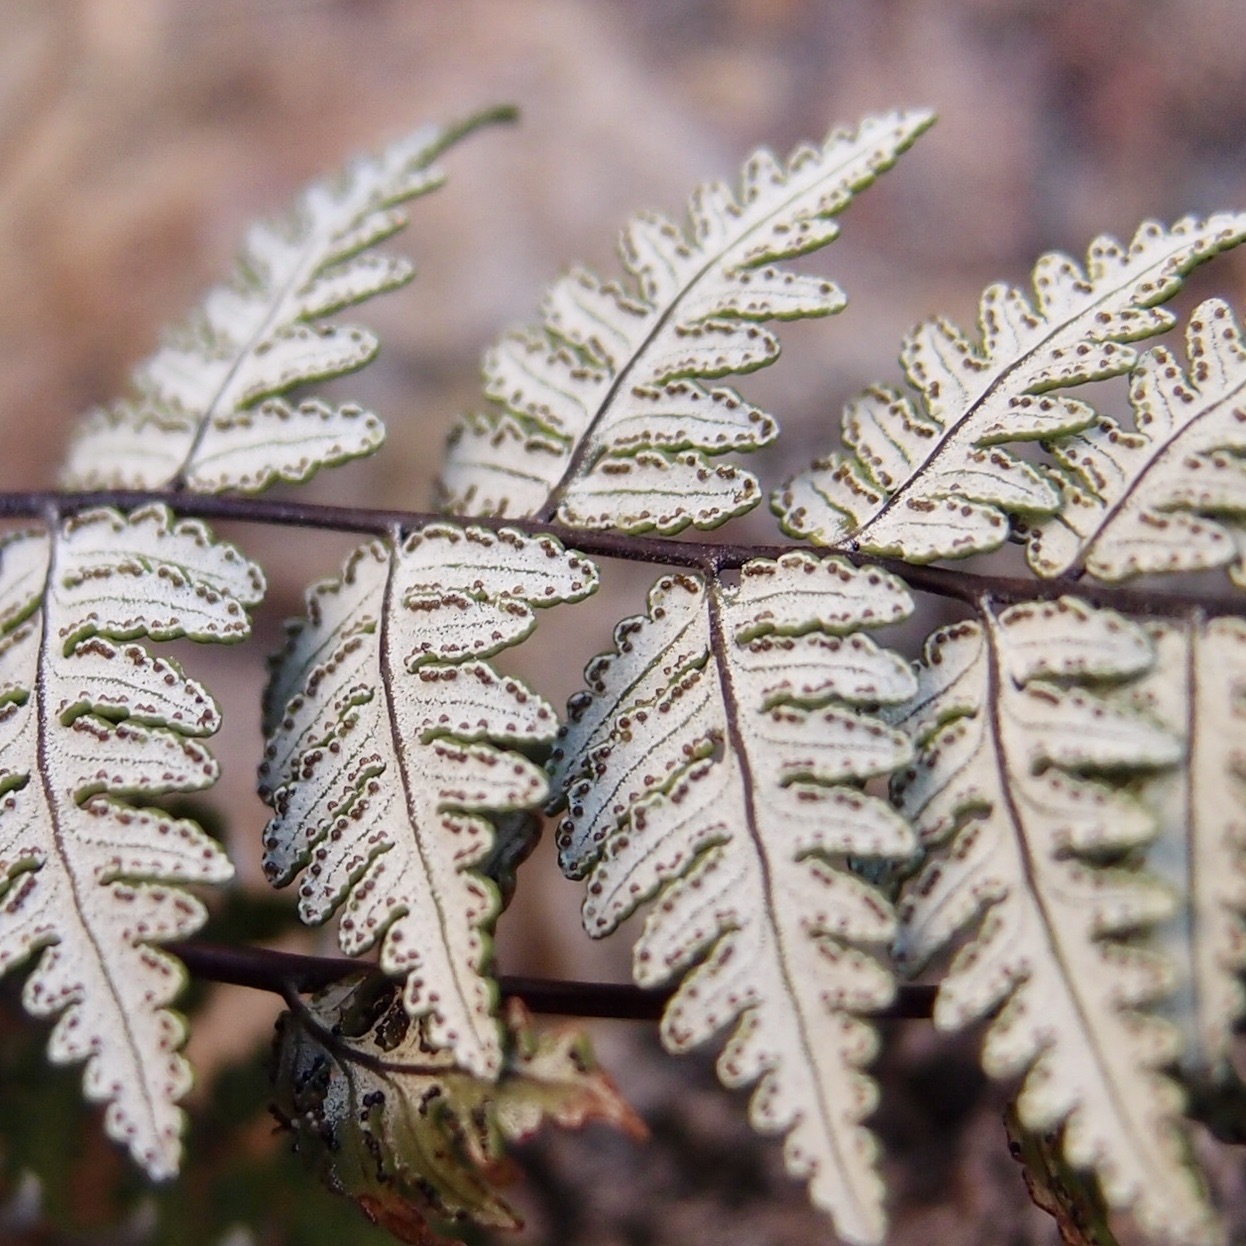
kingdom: Plantae
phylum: Tracheophyta
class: Polypodiopsida
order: Polypodiales
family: Pteridaceae
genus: Notholaena
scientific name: Notholaena lemmonii
